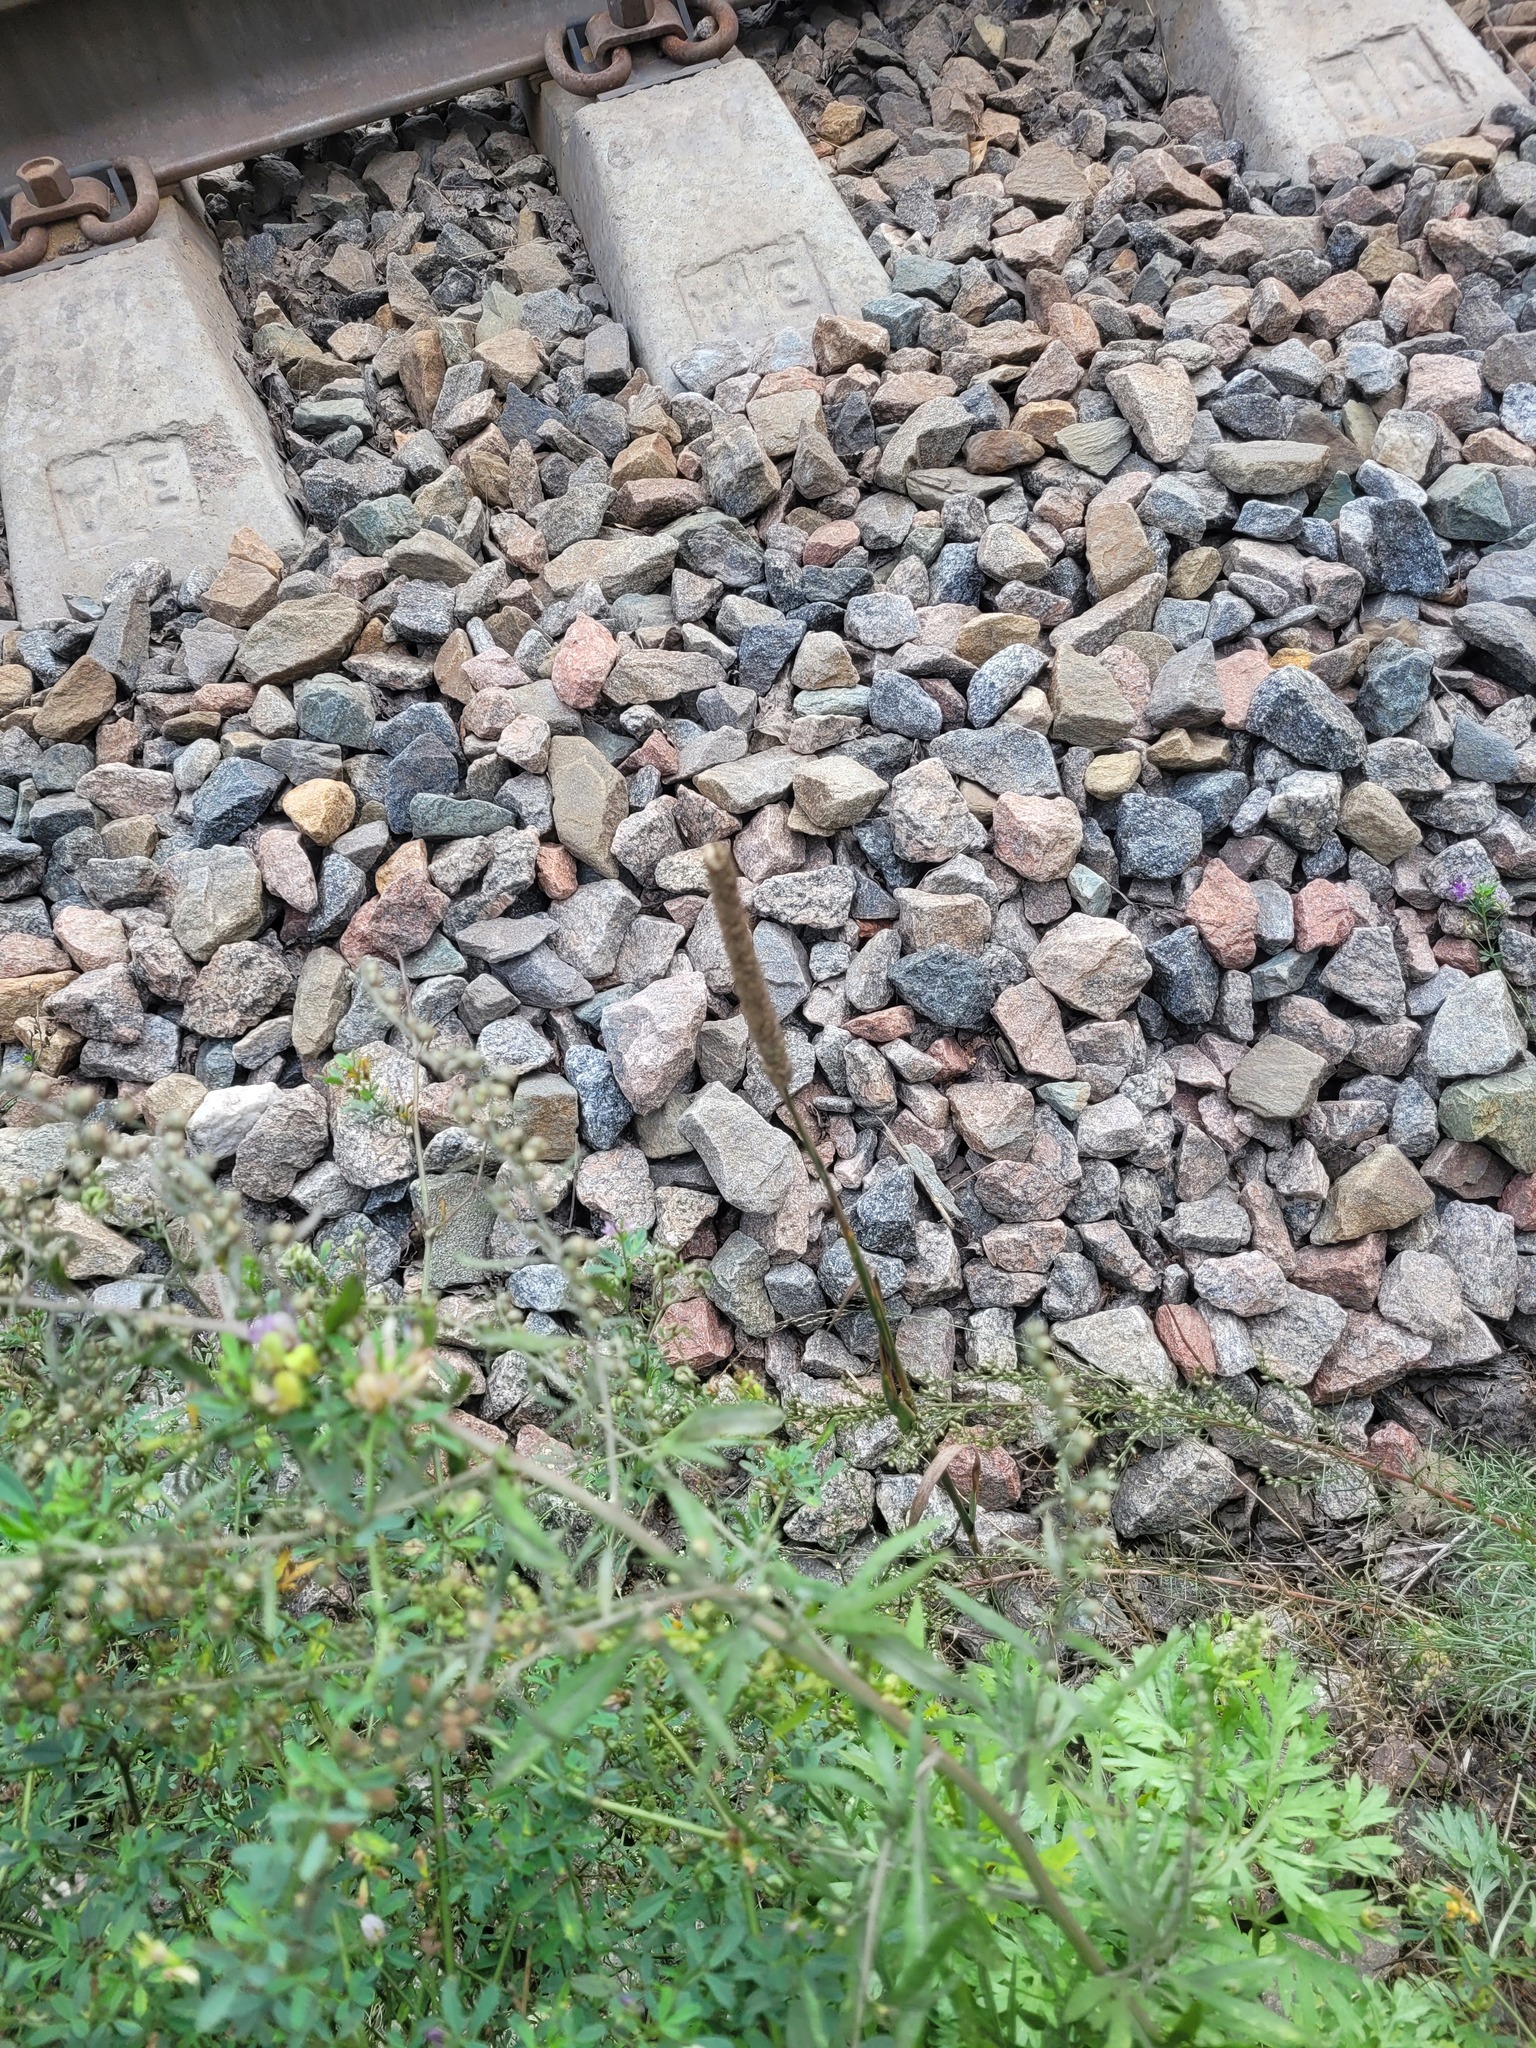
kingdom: Plantae
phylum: Tracheophyta
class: Liliopsida
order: Poales
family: Poaceae
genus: Phleum
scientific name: Phleum pratense
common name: Timothy grass
